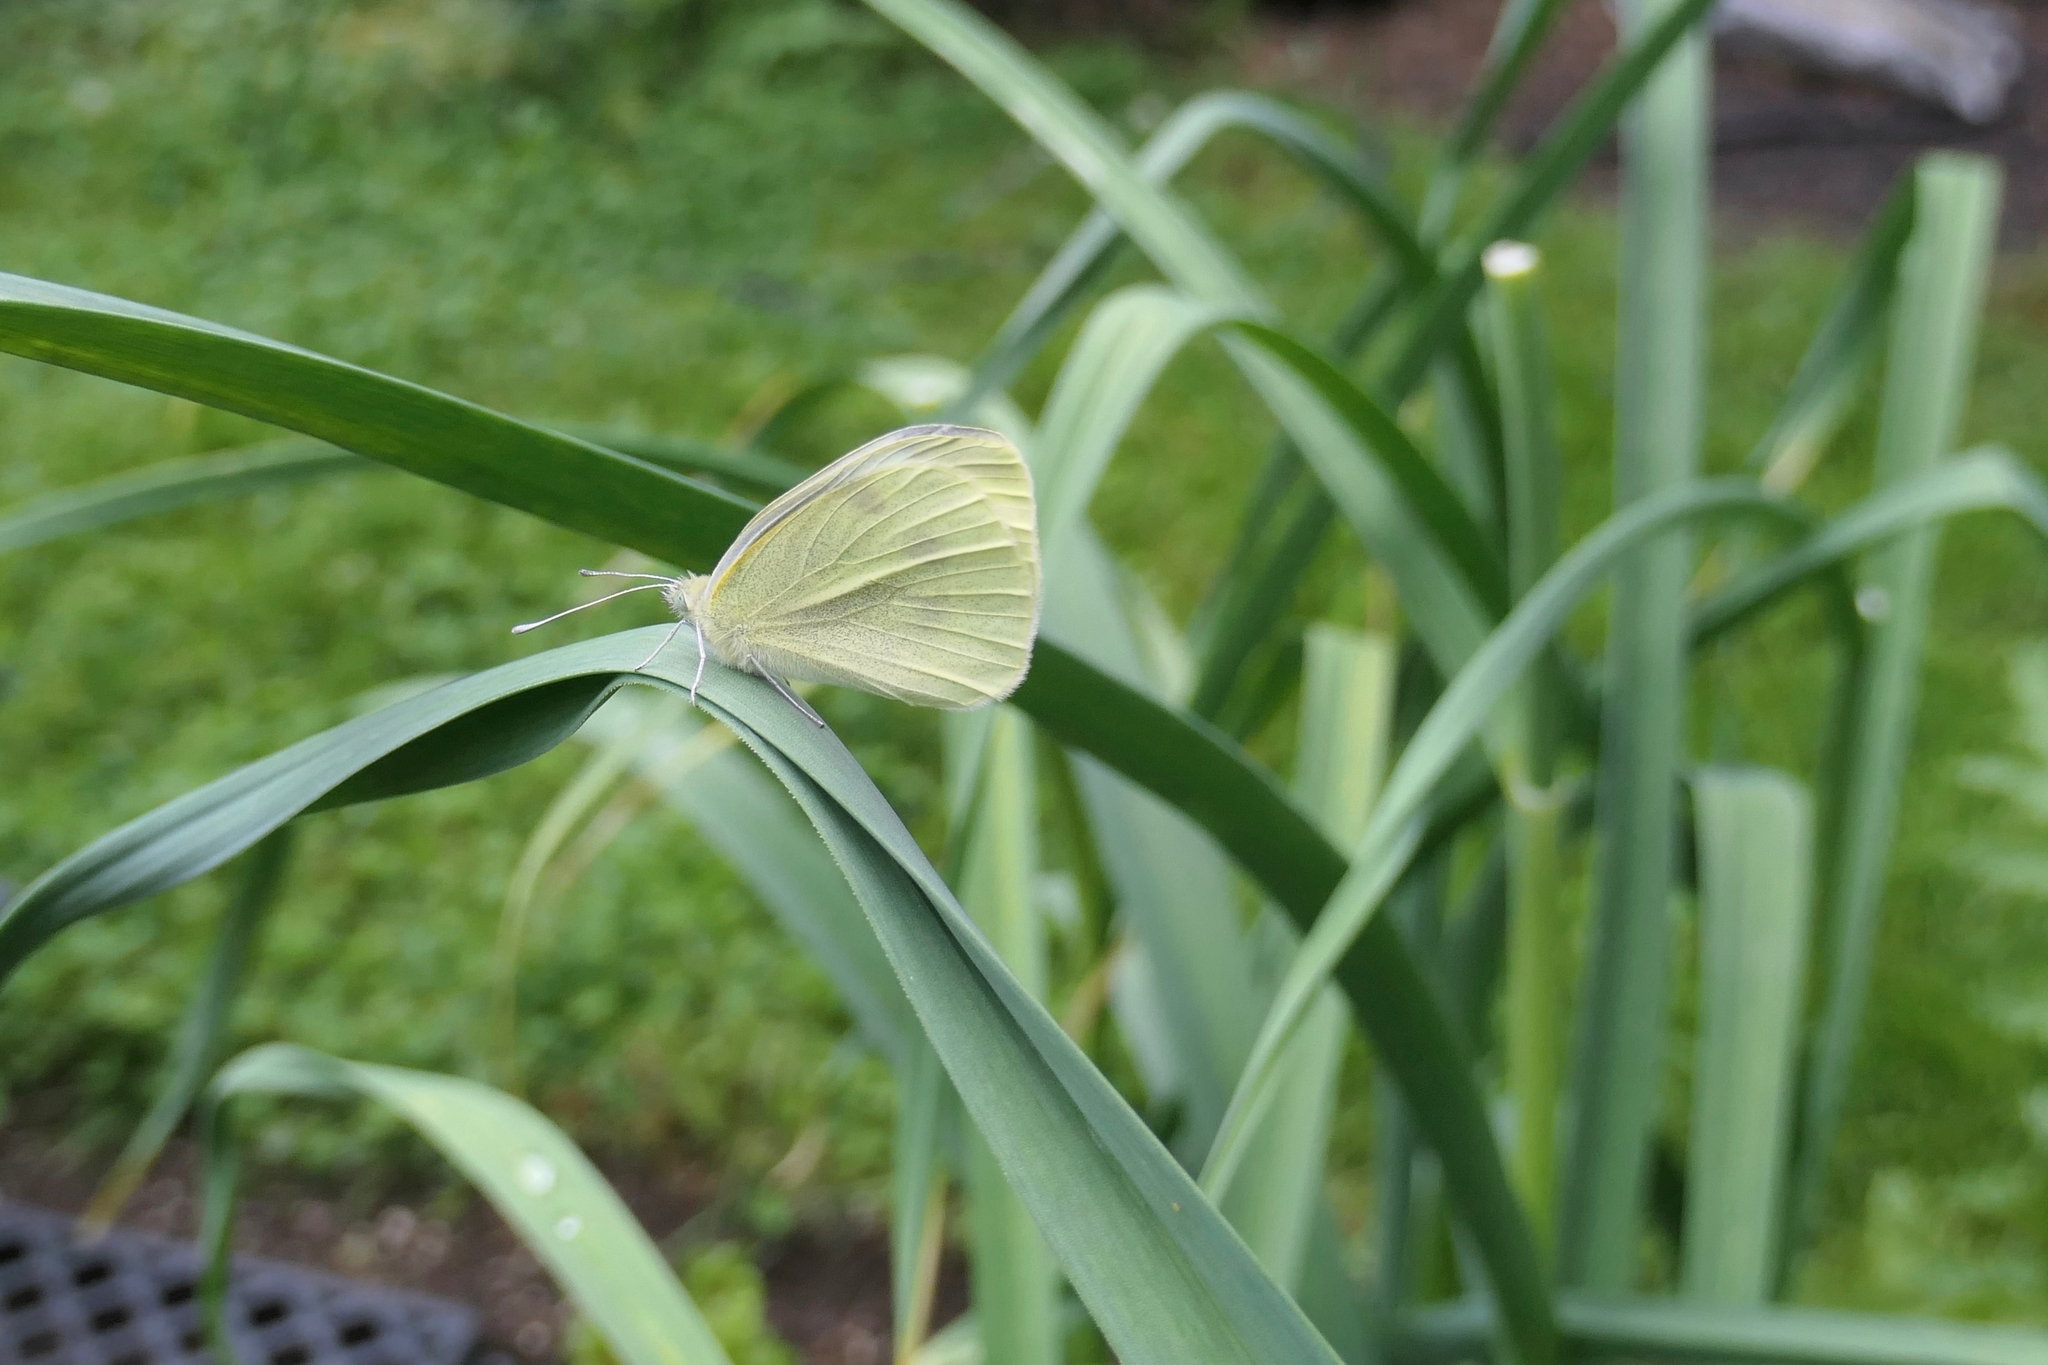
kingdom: Animalia
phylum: Arthropoda
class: Insecta
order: Lepidoptera
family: Pieridae
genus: Pieris
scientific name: Pieris rapae
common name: Small white
